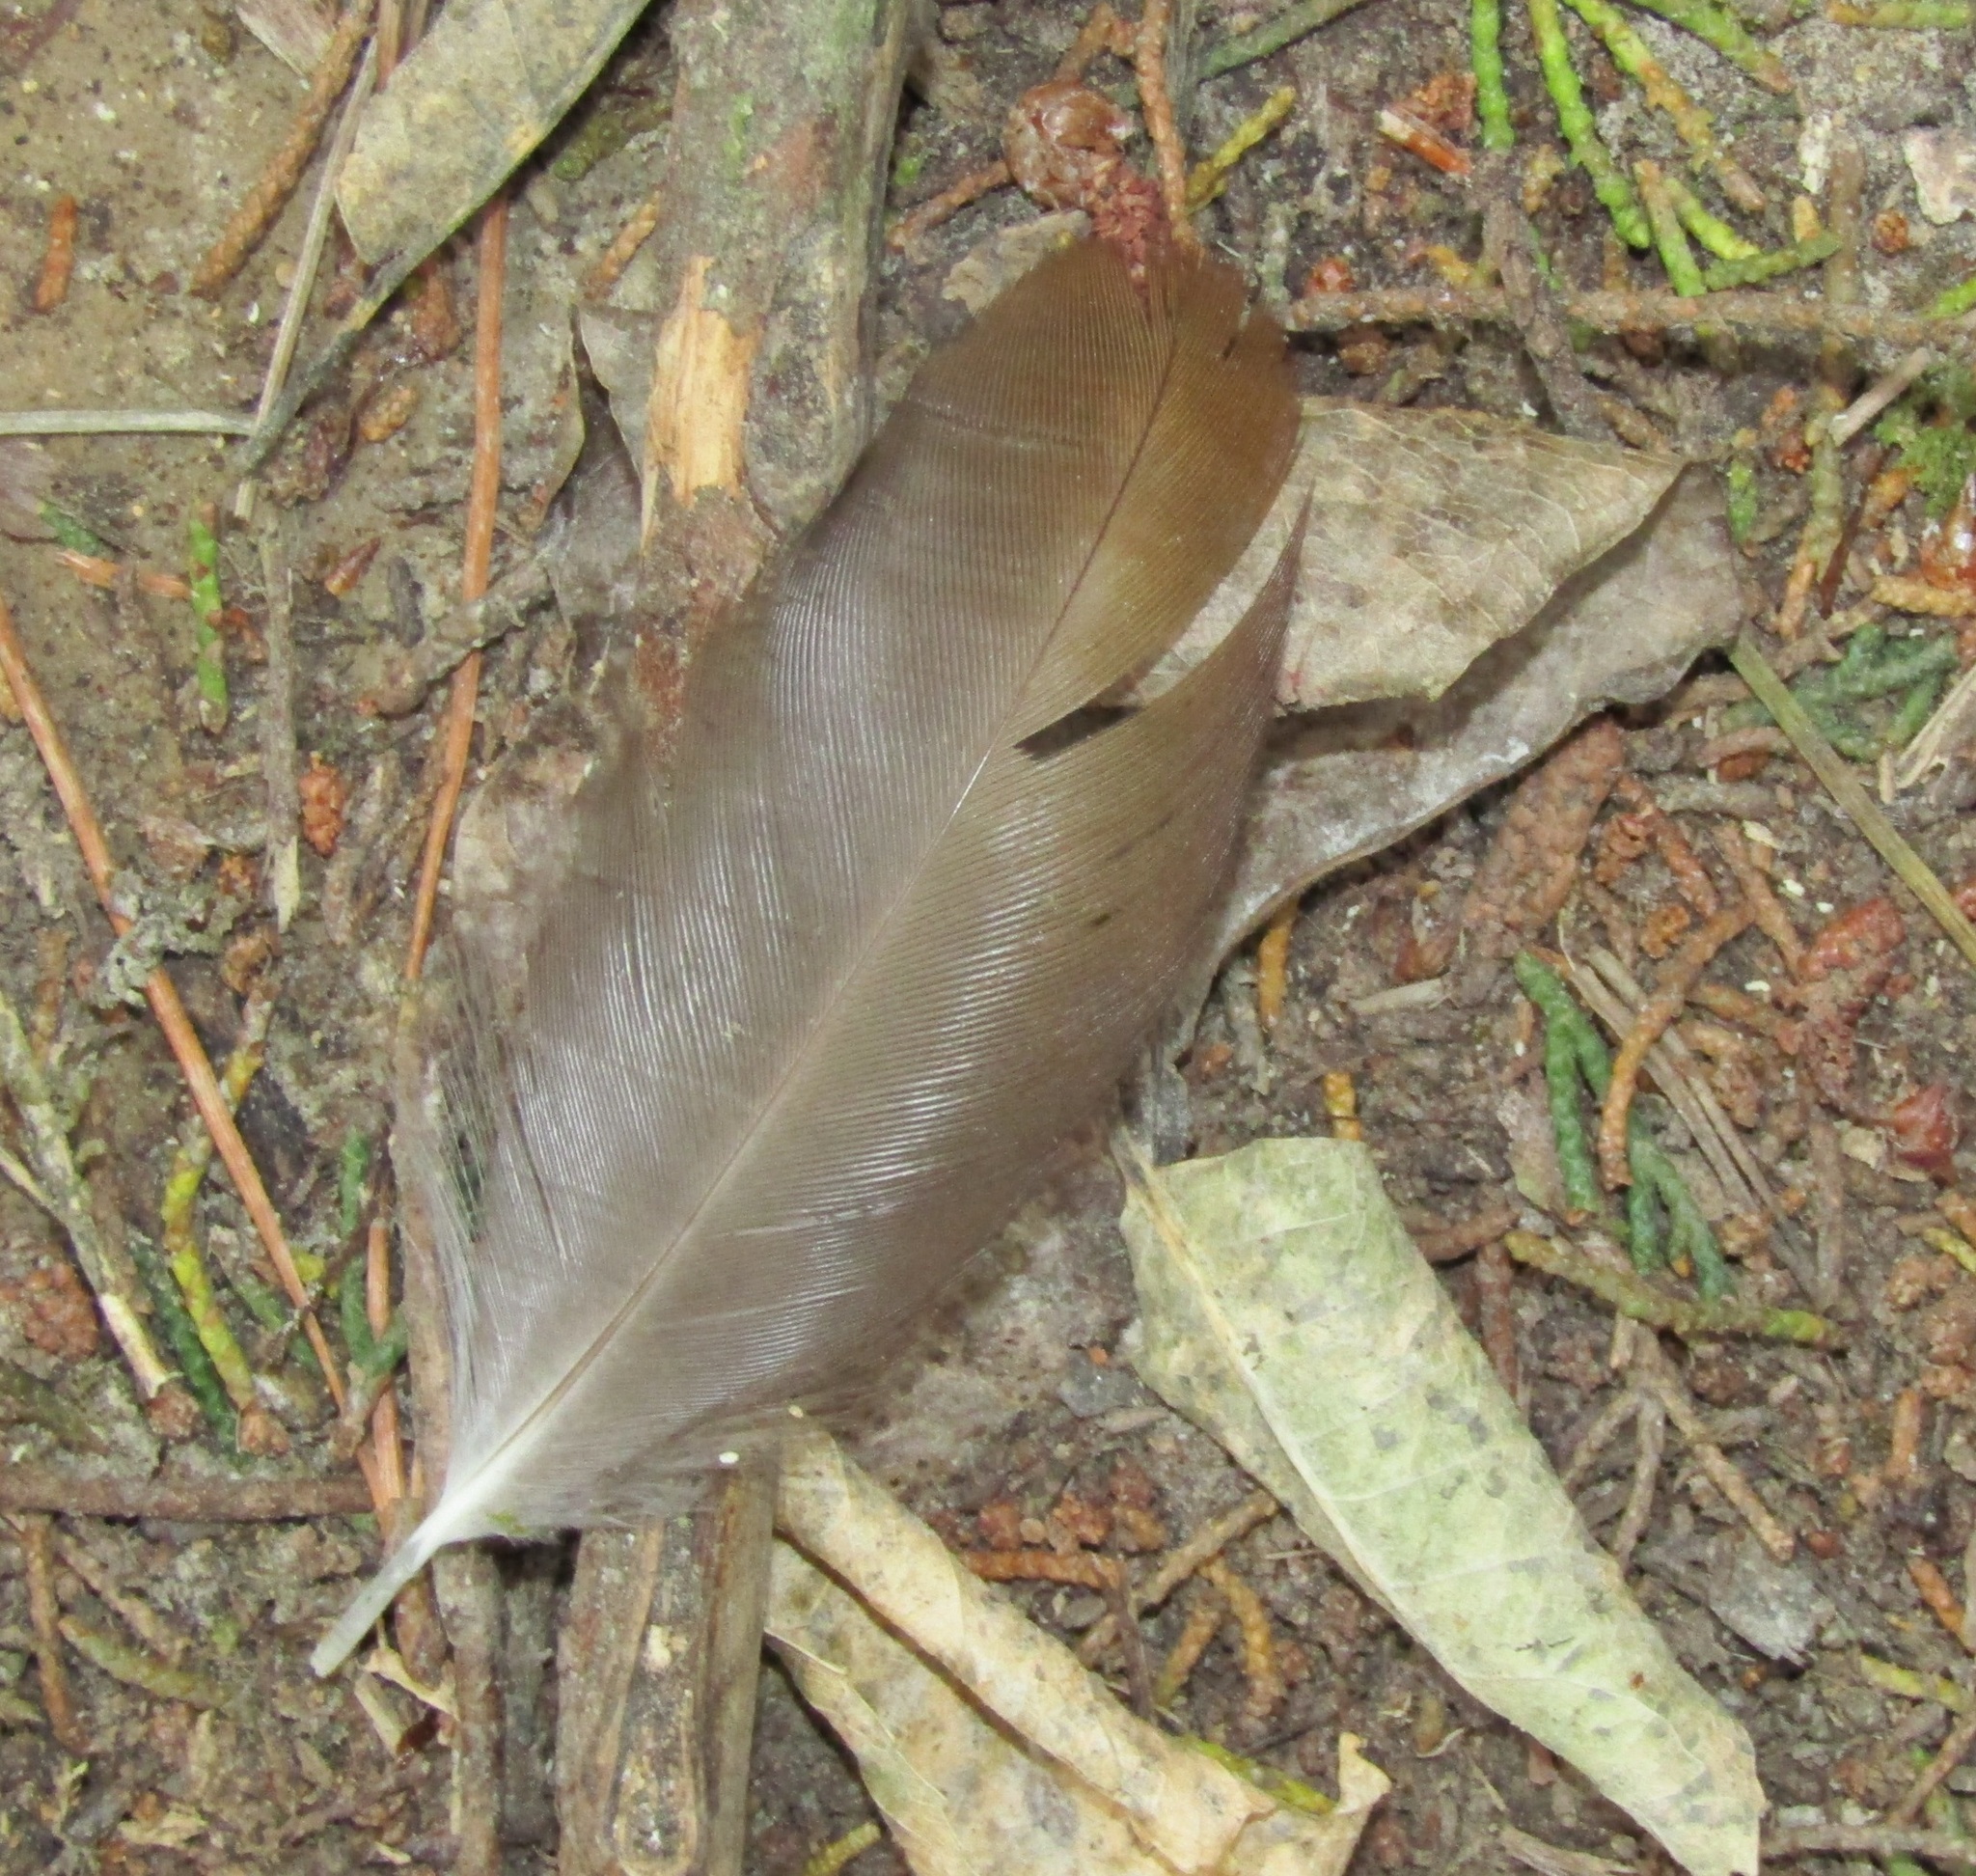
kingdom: Animalia
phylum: Chordata
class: Aves
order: Psittaciformes
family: Psittacidae
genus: Nestor
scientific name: Nestor meridionalis
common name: New zealand kaka
